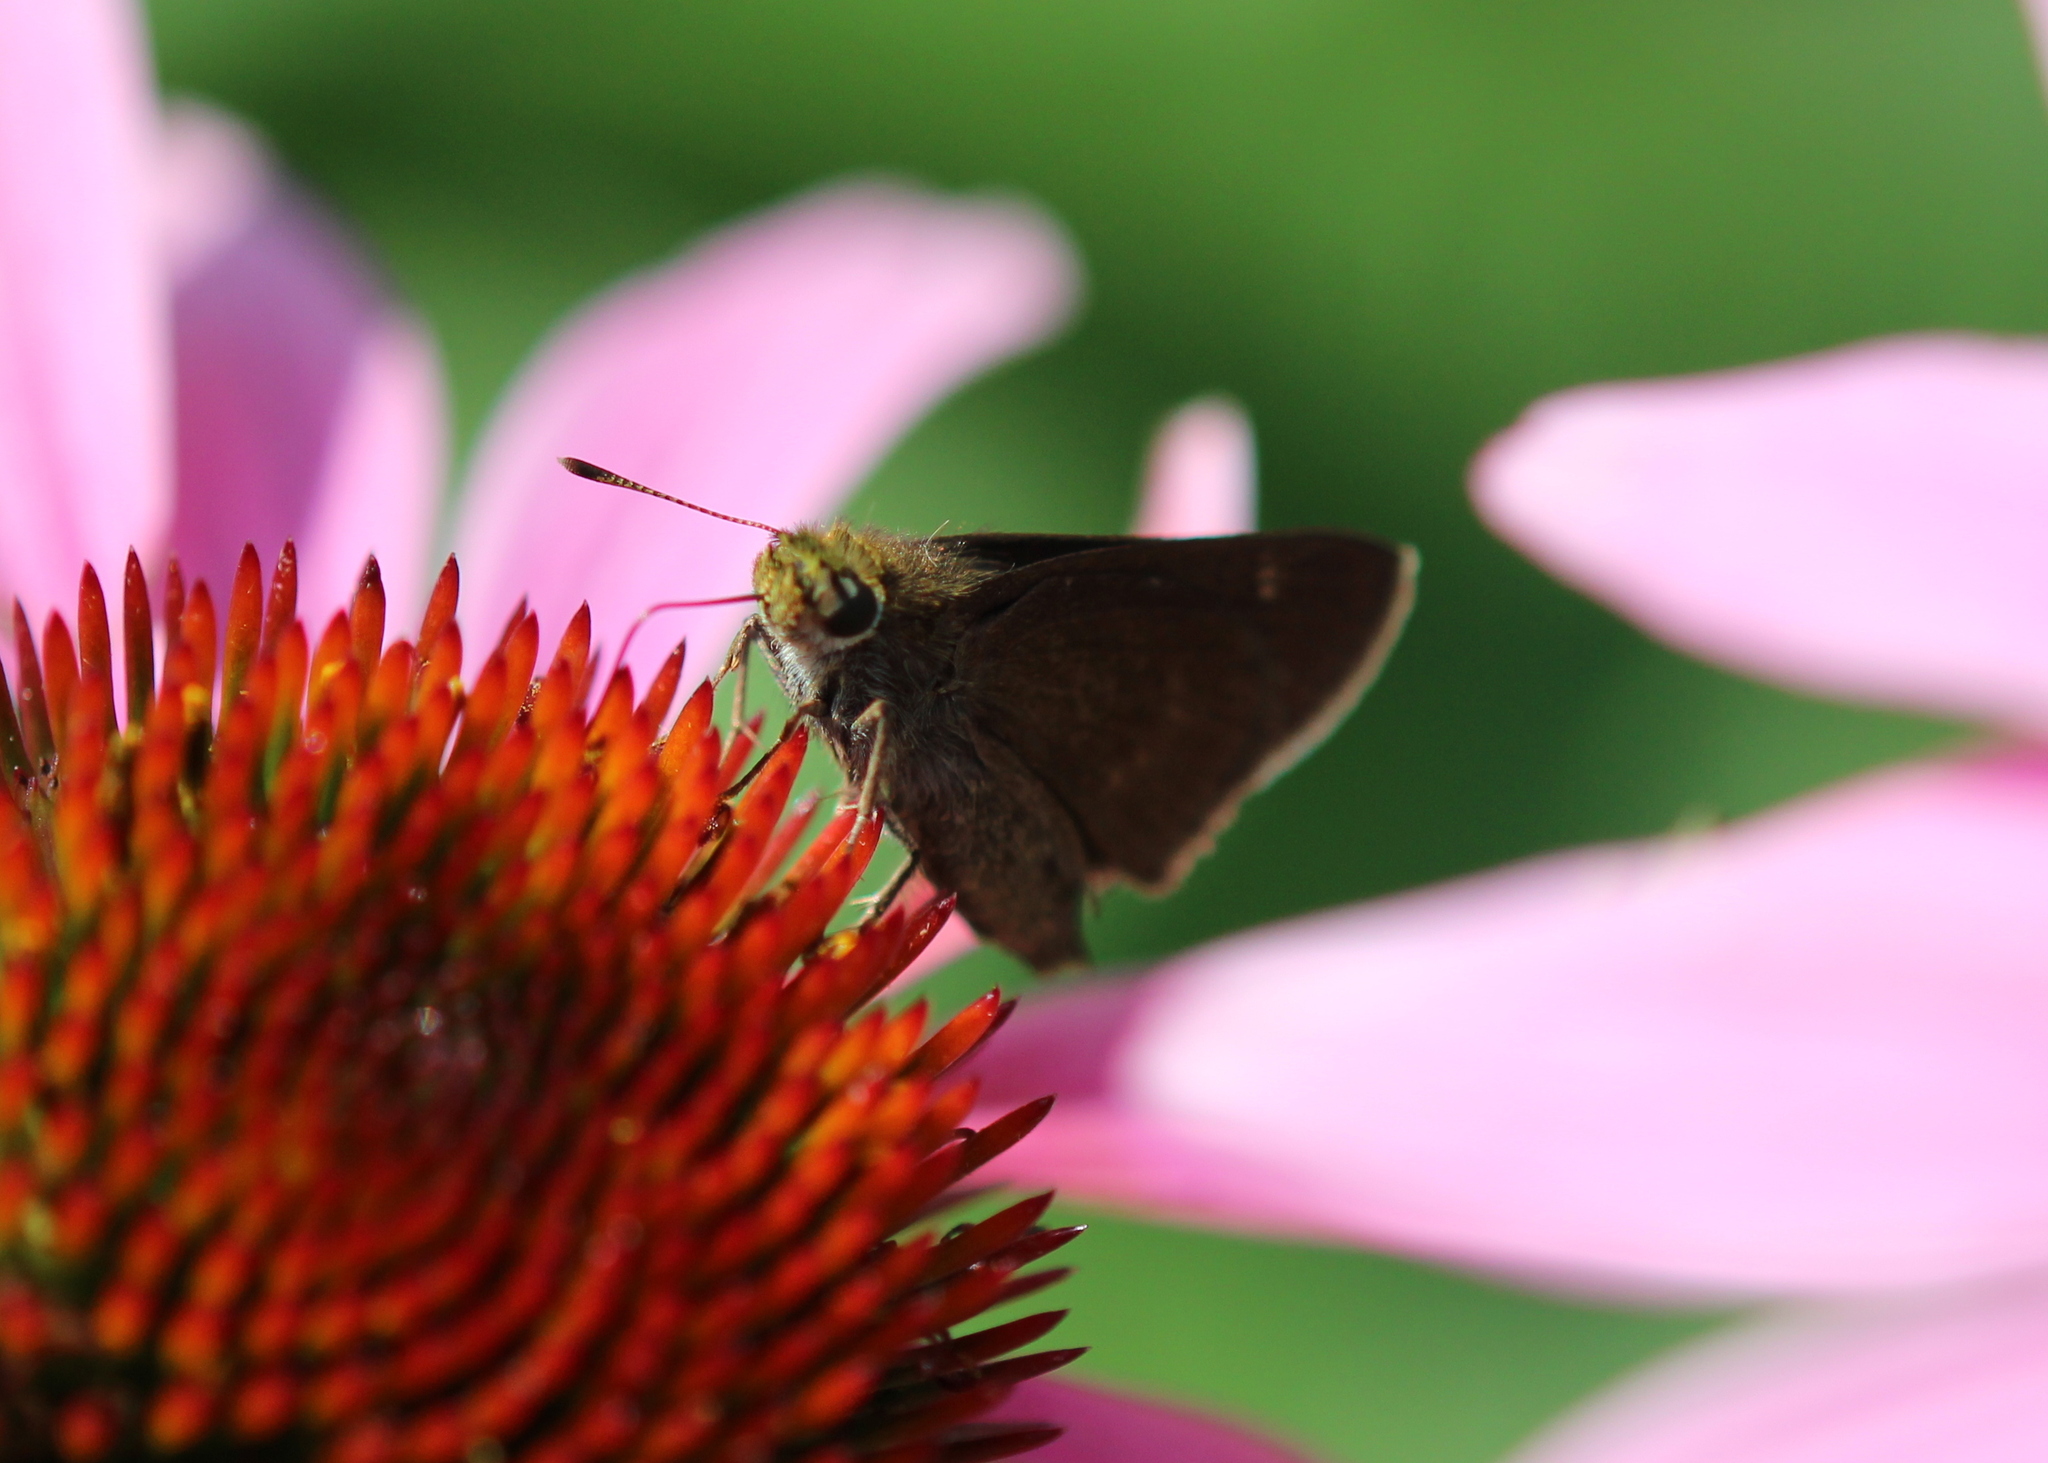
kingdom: Animalia
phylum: Arthropoda
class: Insecta
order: Lepidoptera
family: Hesperiidae
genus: Euphyes
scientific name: Euphyes vestris
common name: Dun skipper
